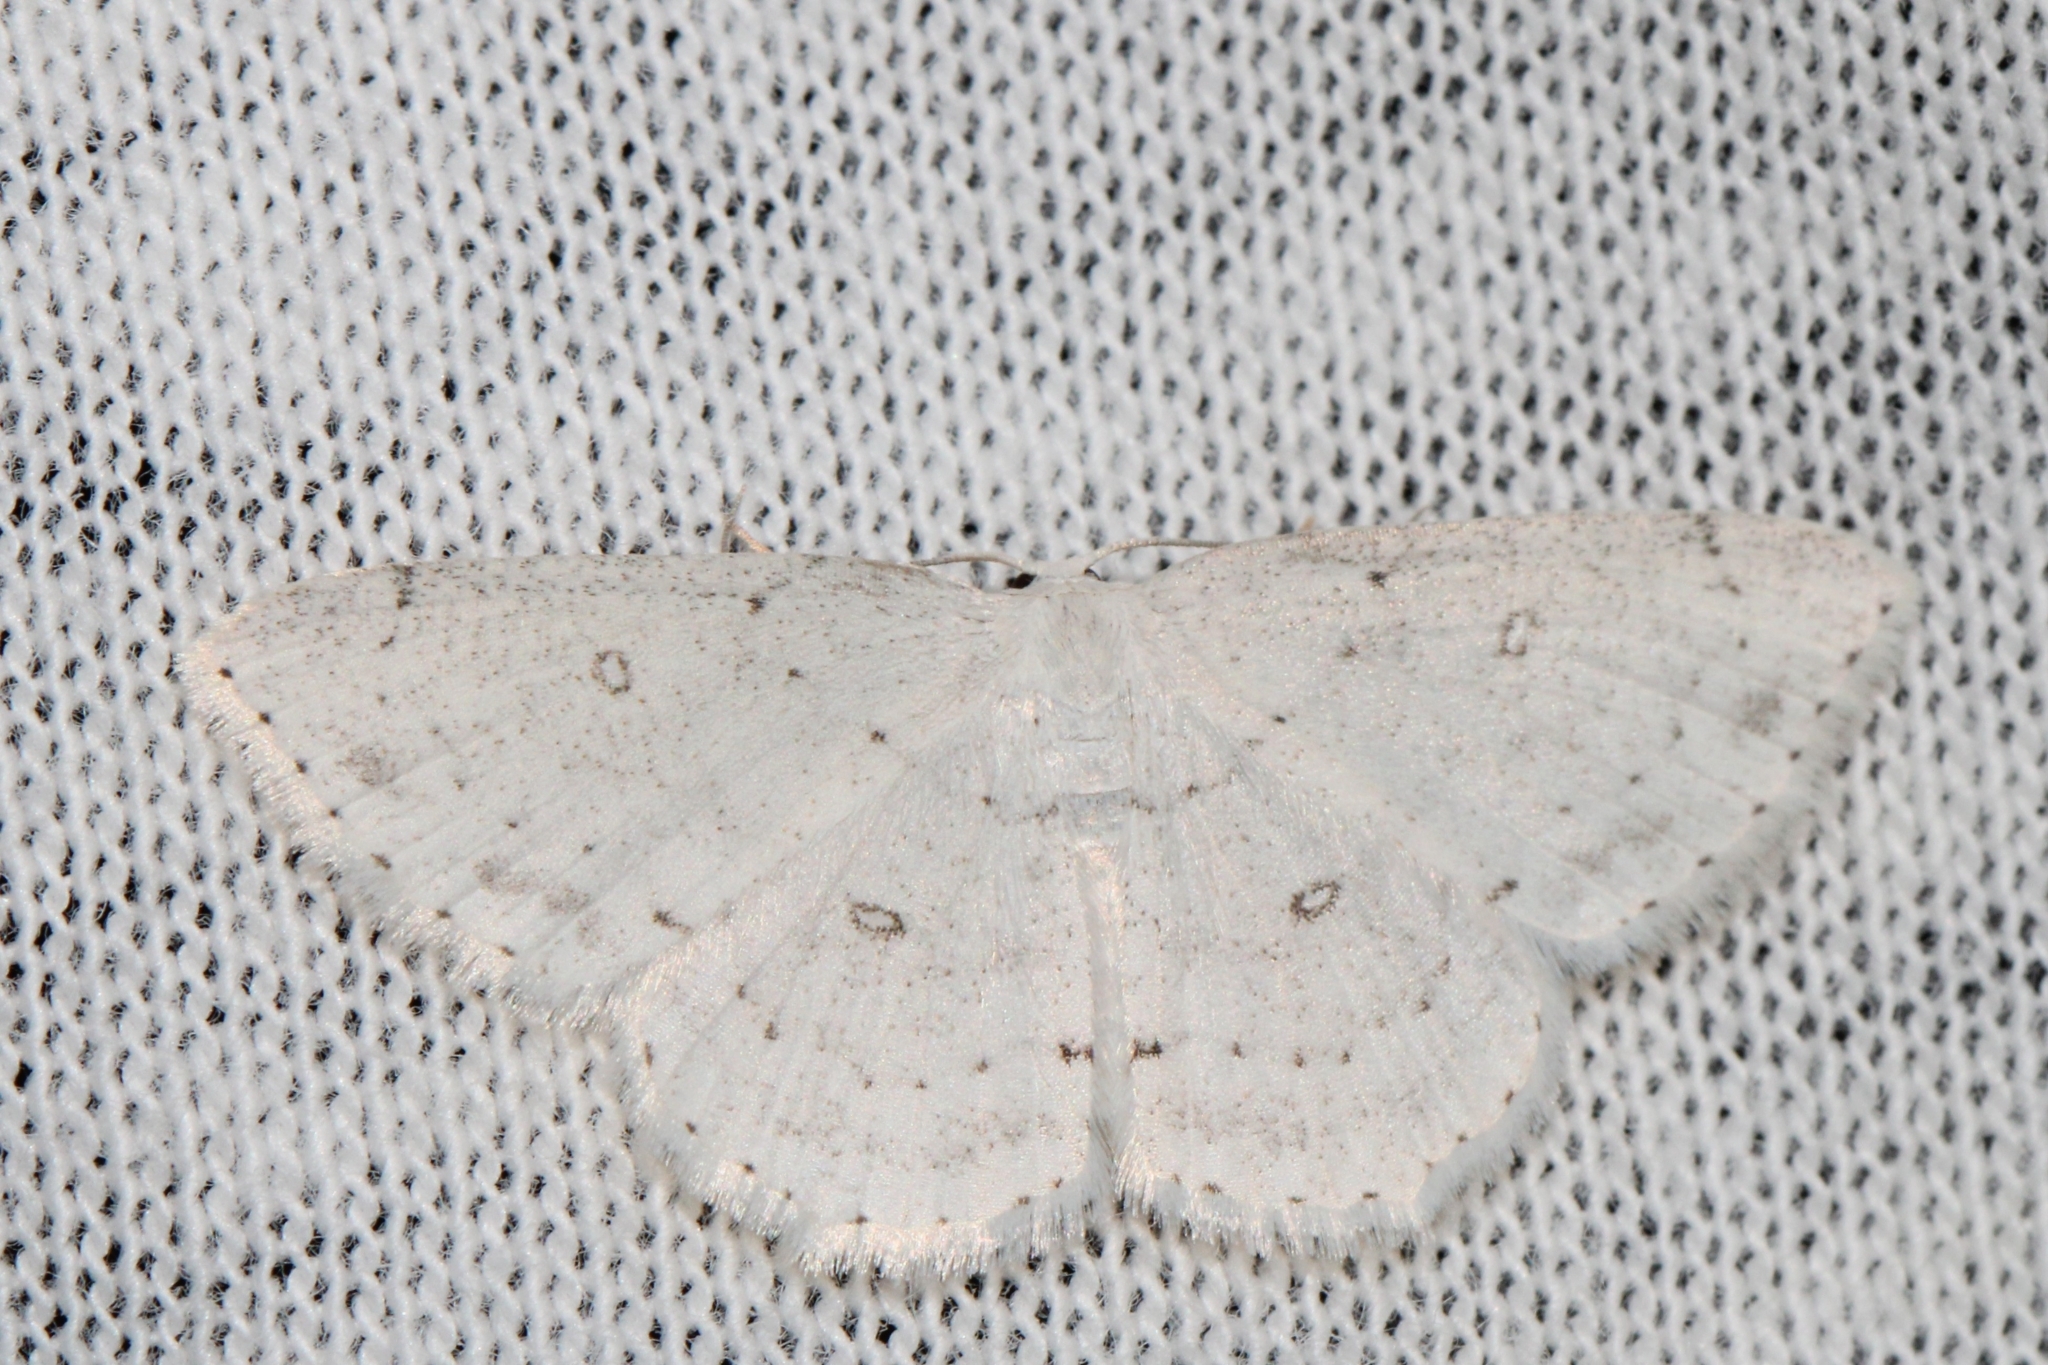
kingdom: Animalia
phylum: Arthropoda
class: Insecta
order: Lepidoptera
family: Geometridae
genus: Cyclophora
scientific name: Cyclophora pendulinaria
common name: Sweet fern geometer
